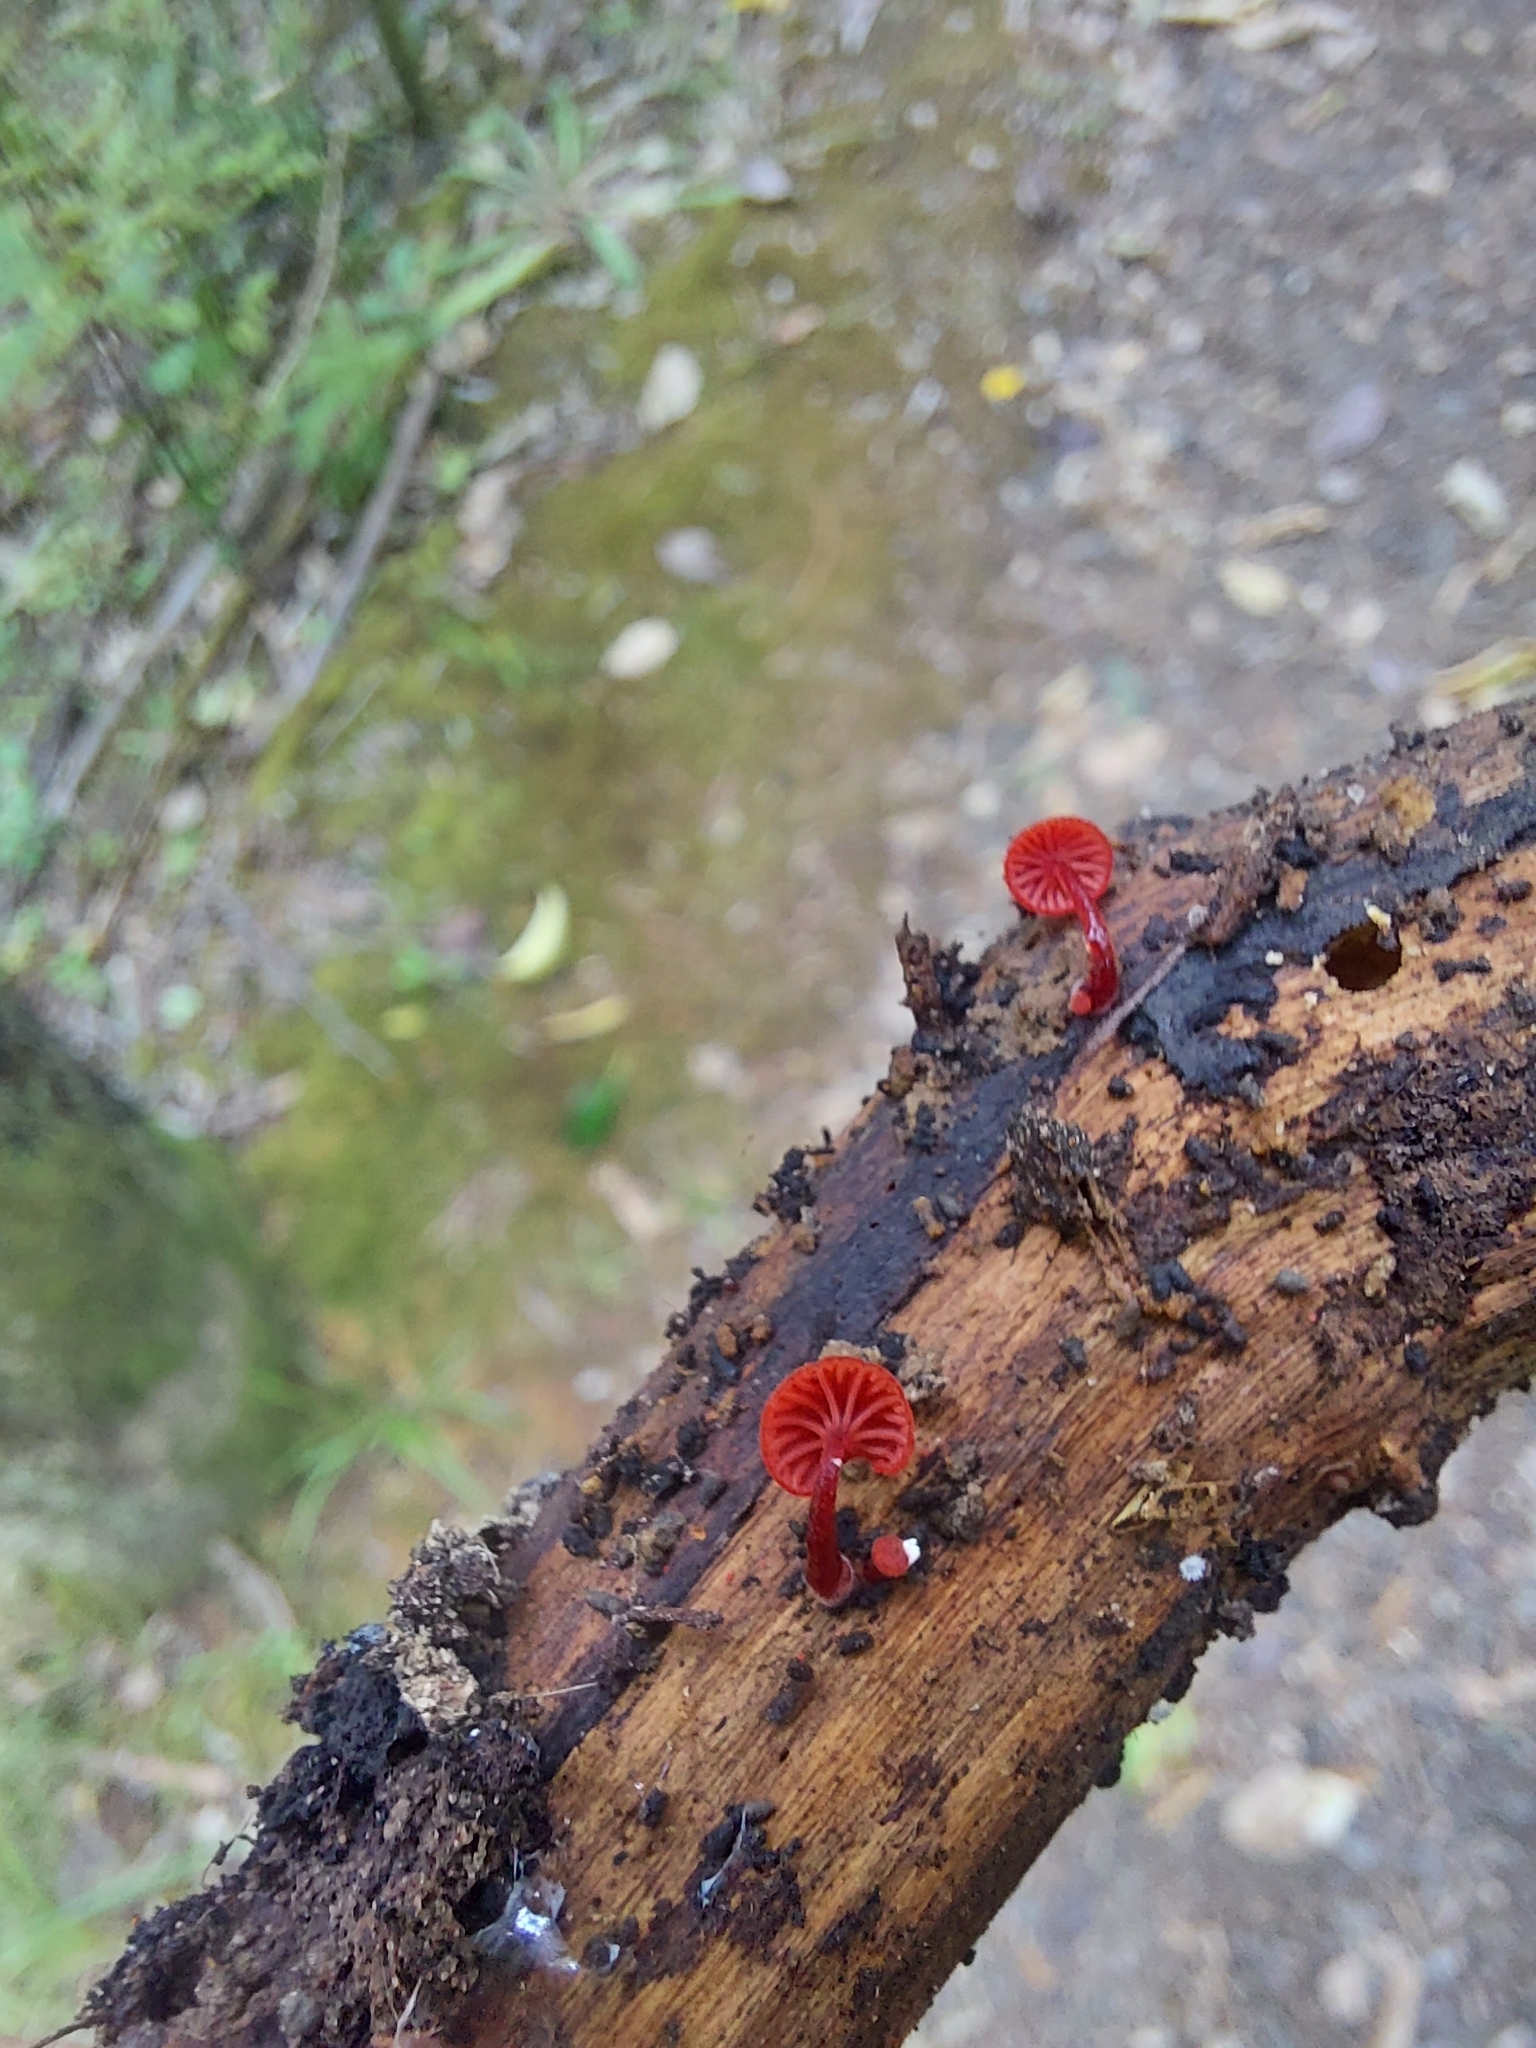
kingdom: Fungi
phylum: Basidiomycota
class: Agaricomycetes
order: Agaricales
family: Mycenaceae
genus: Cruentomycena
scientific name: Cruentomycena viscidocruenta
